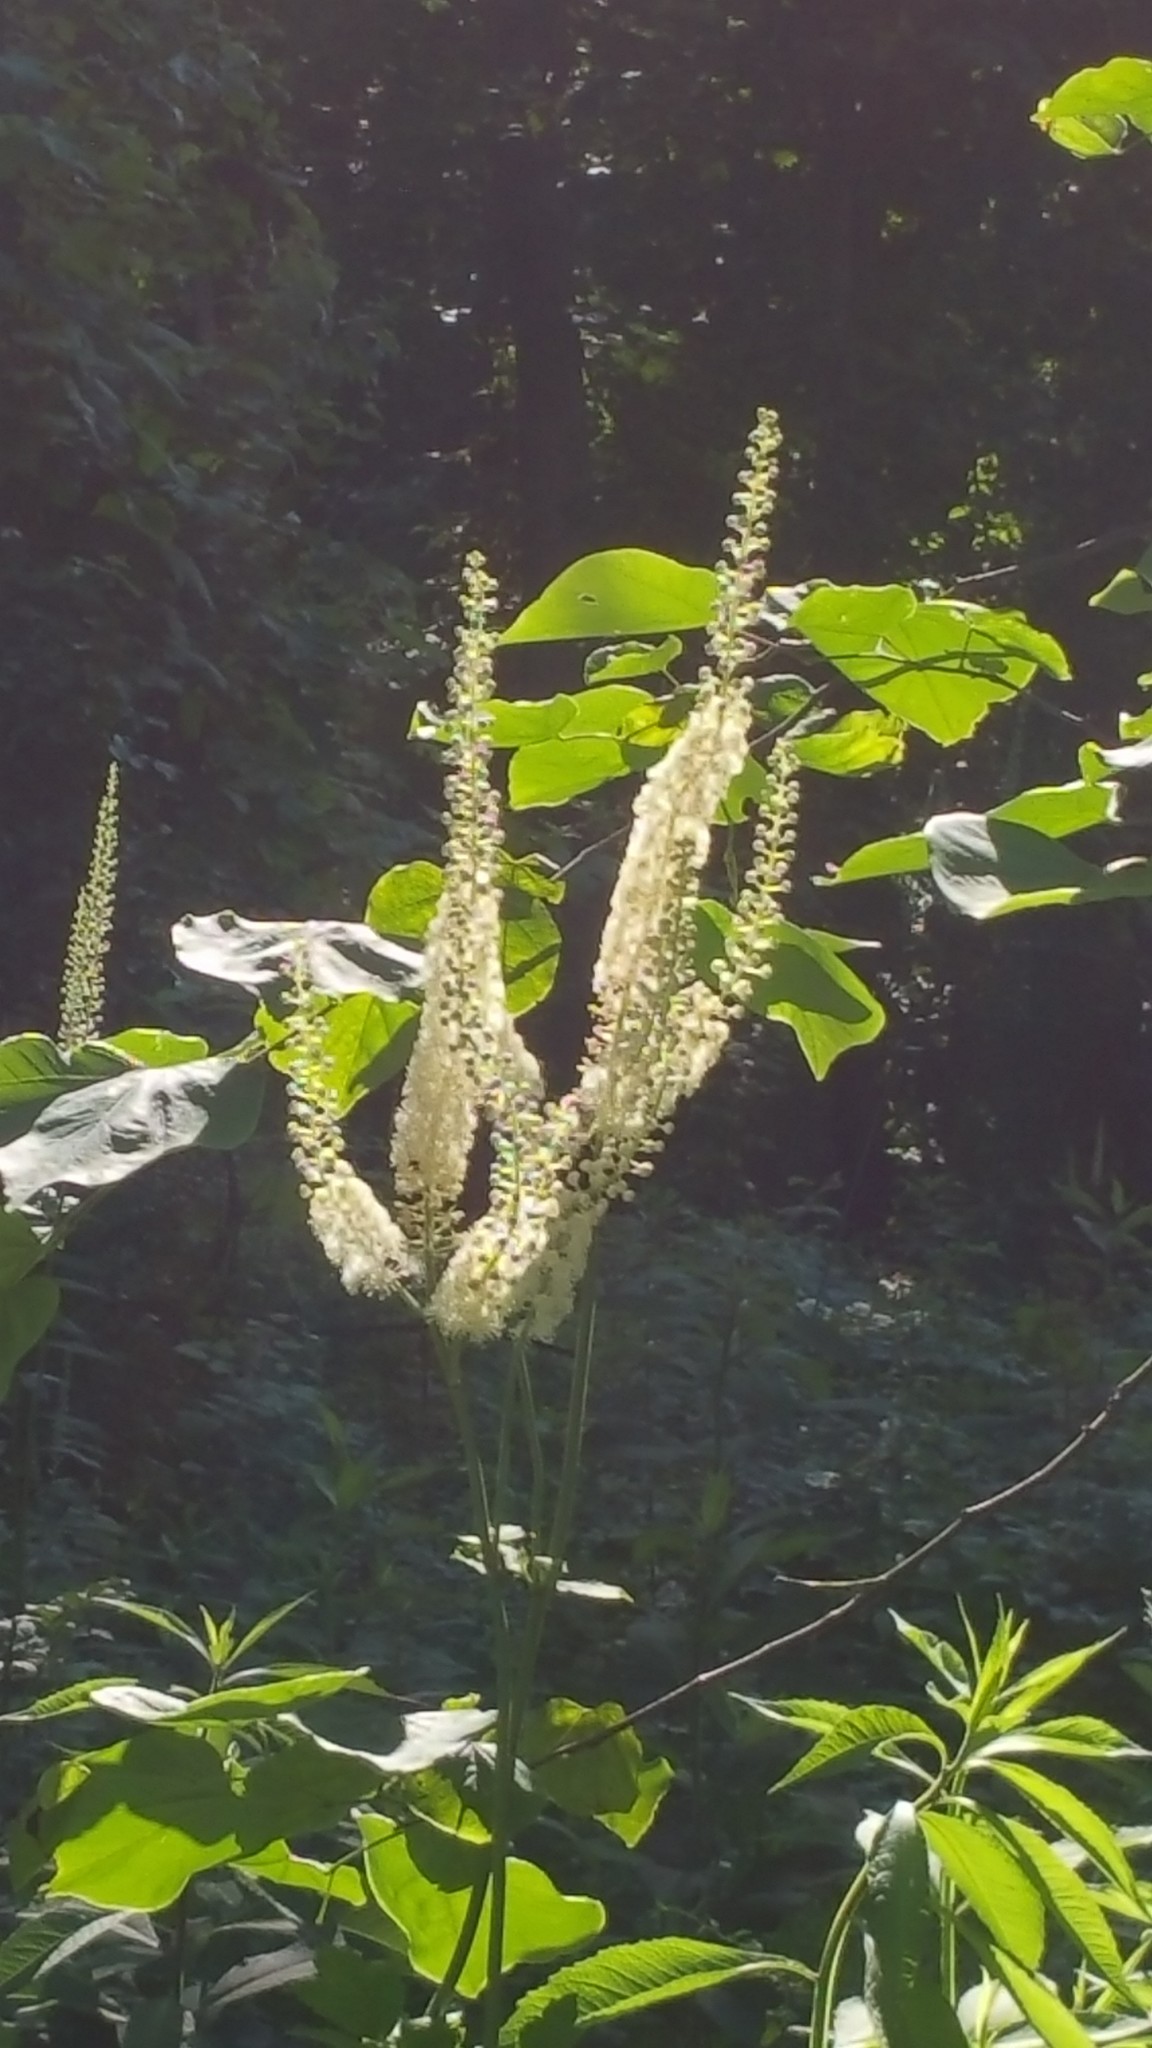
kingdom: Plantae
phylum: Tracheophyta
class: Magnoliopsida
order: Ranunculales
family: Ranunculaceae
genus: Actaea
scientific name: Actaea racemosa
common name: Black cohosh
